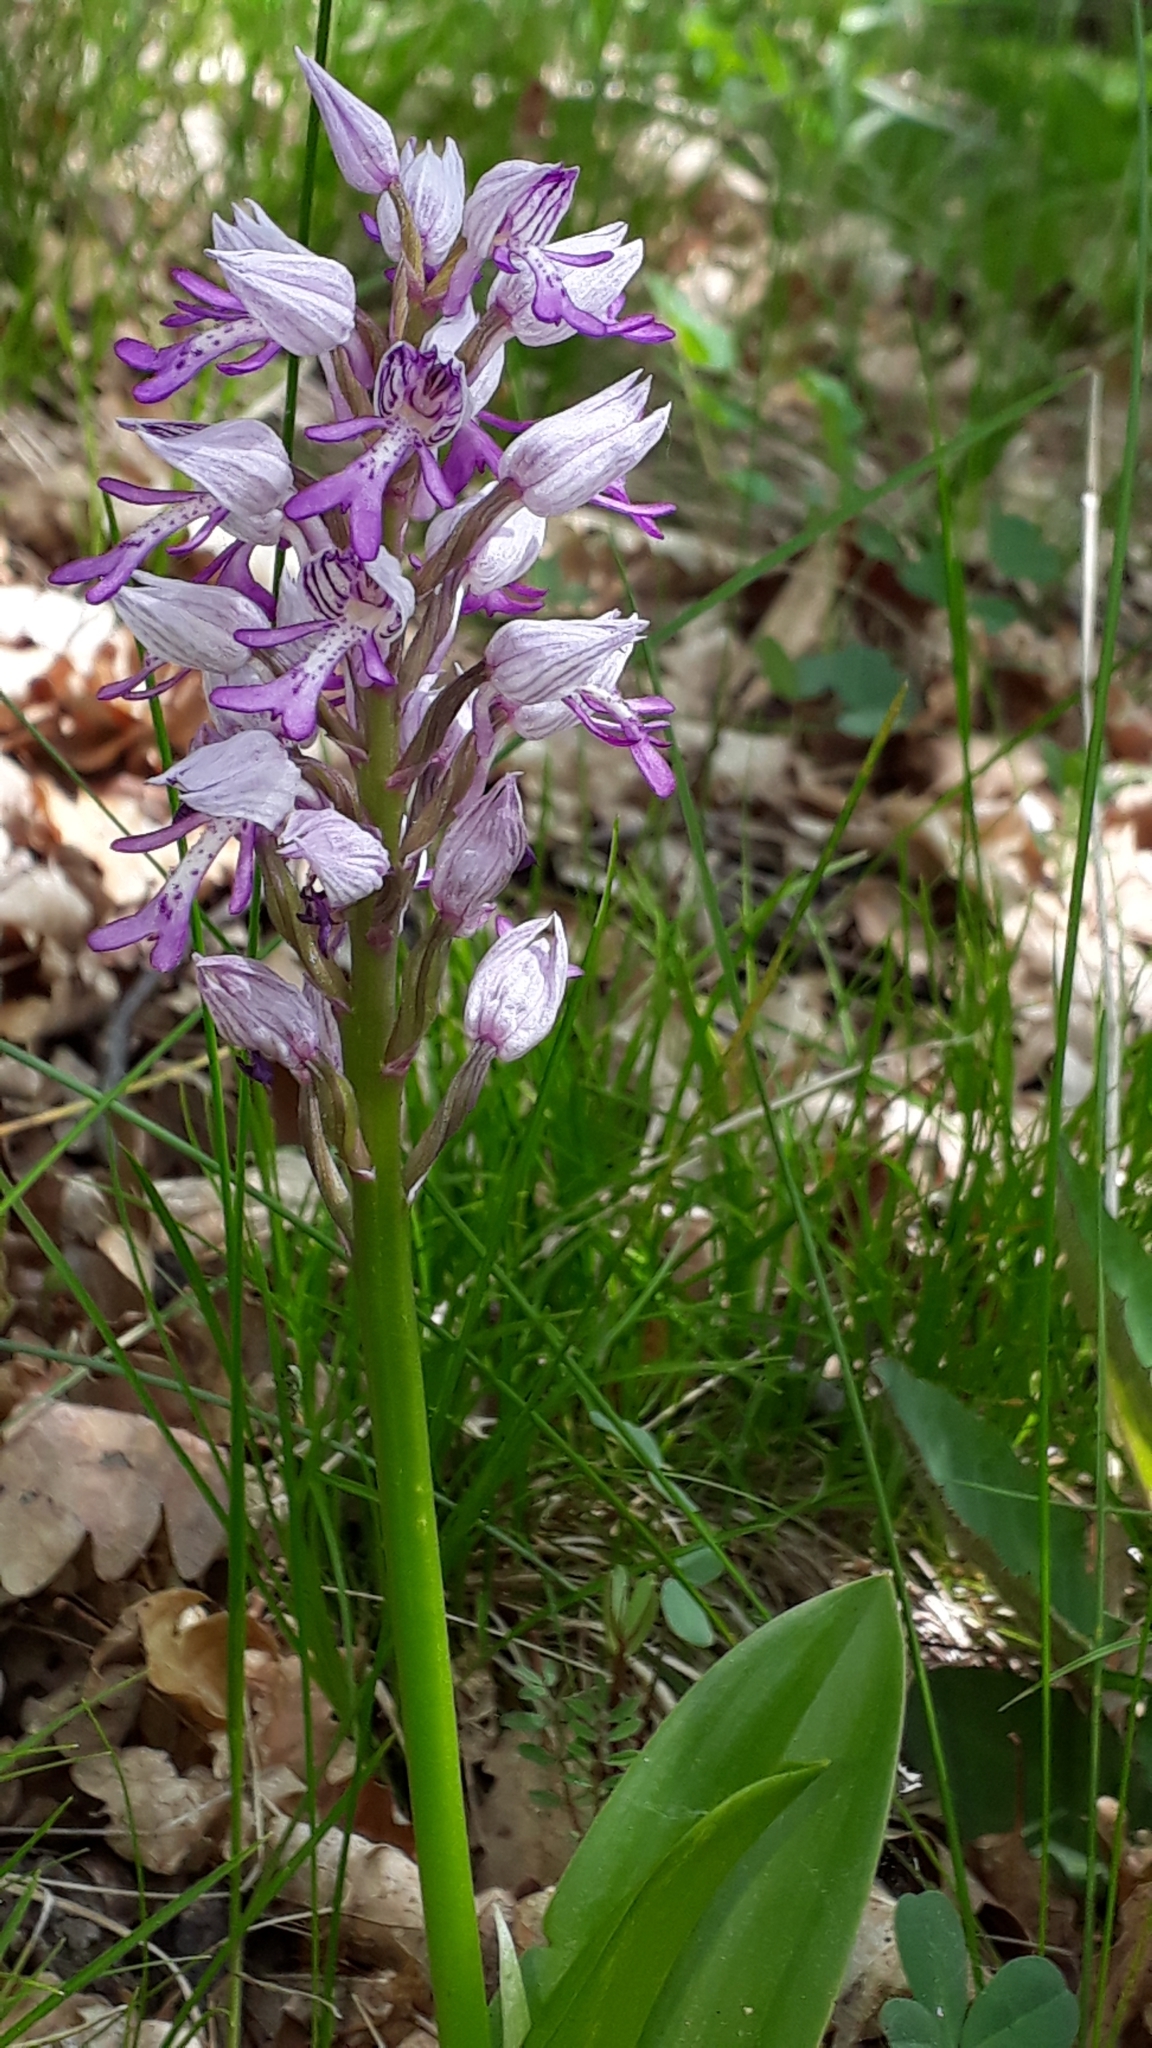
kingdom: Plantae
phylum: Tracheophyta
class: Liliopsida
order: Asparagales
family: Orchidaceae
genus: Orchis
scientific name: Orchis militaris
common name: Military orchid
